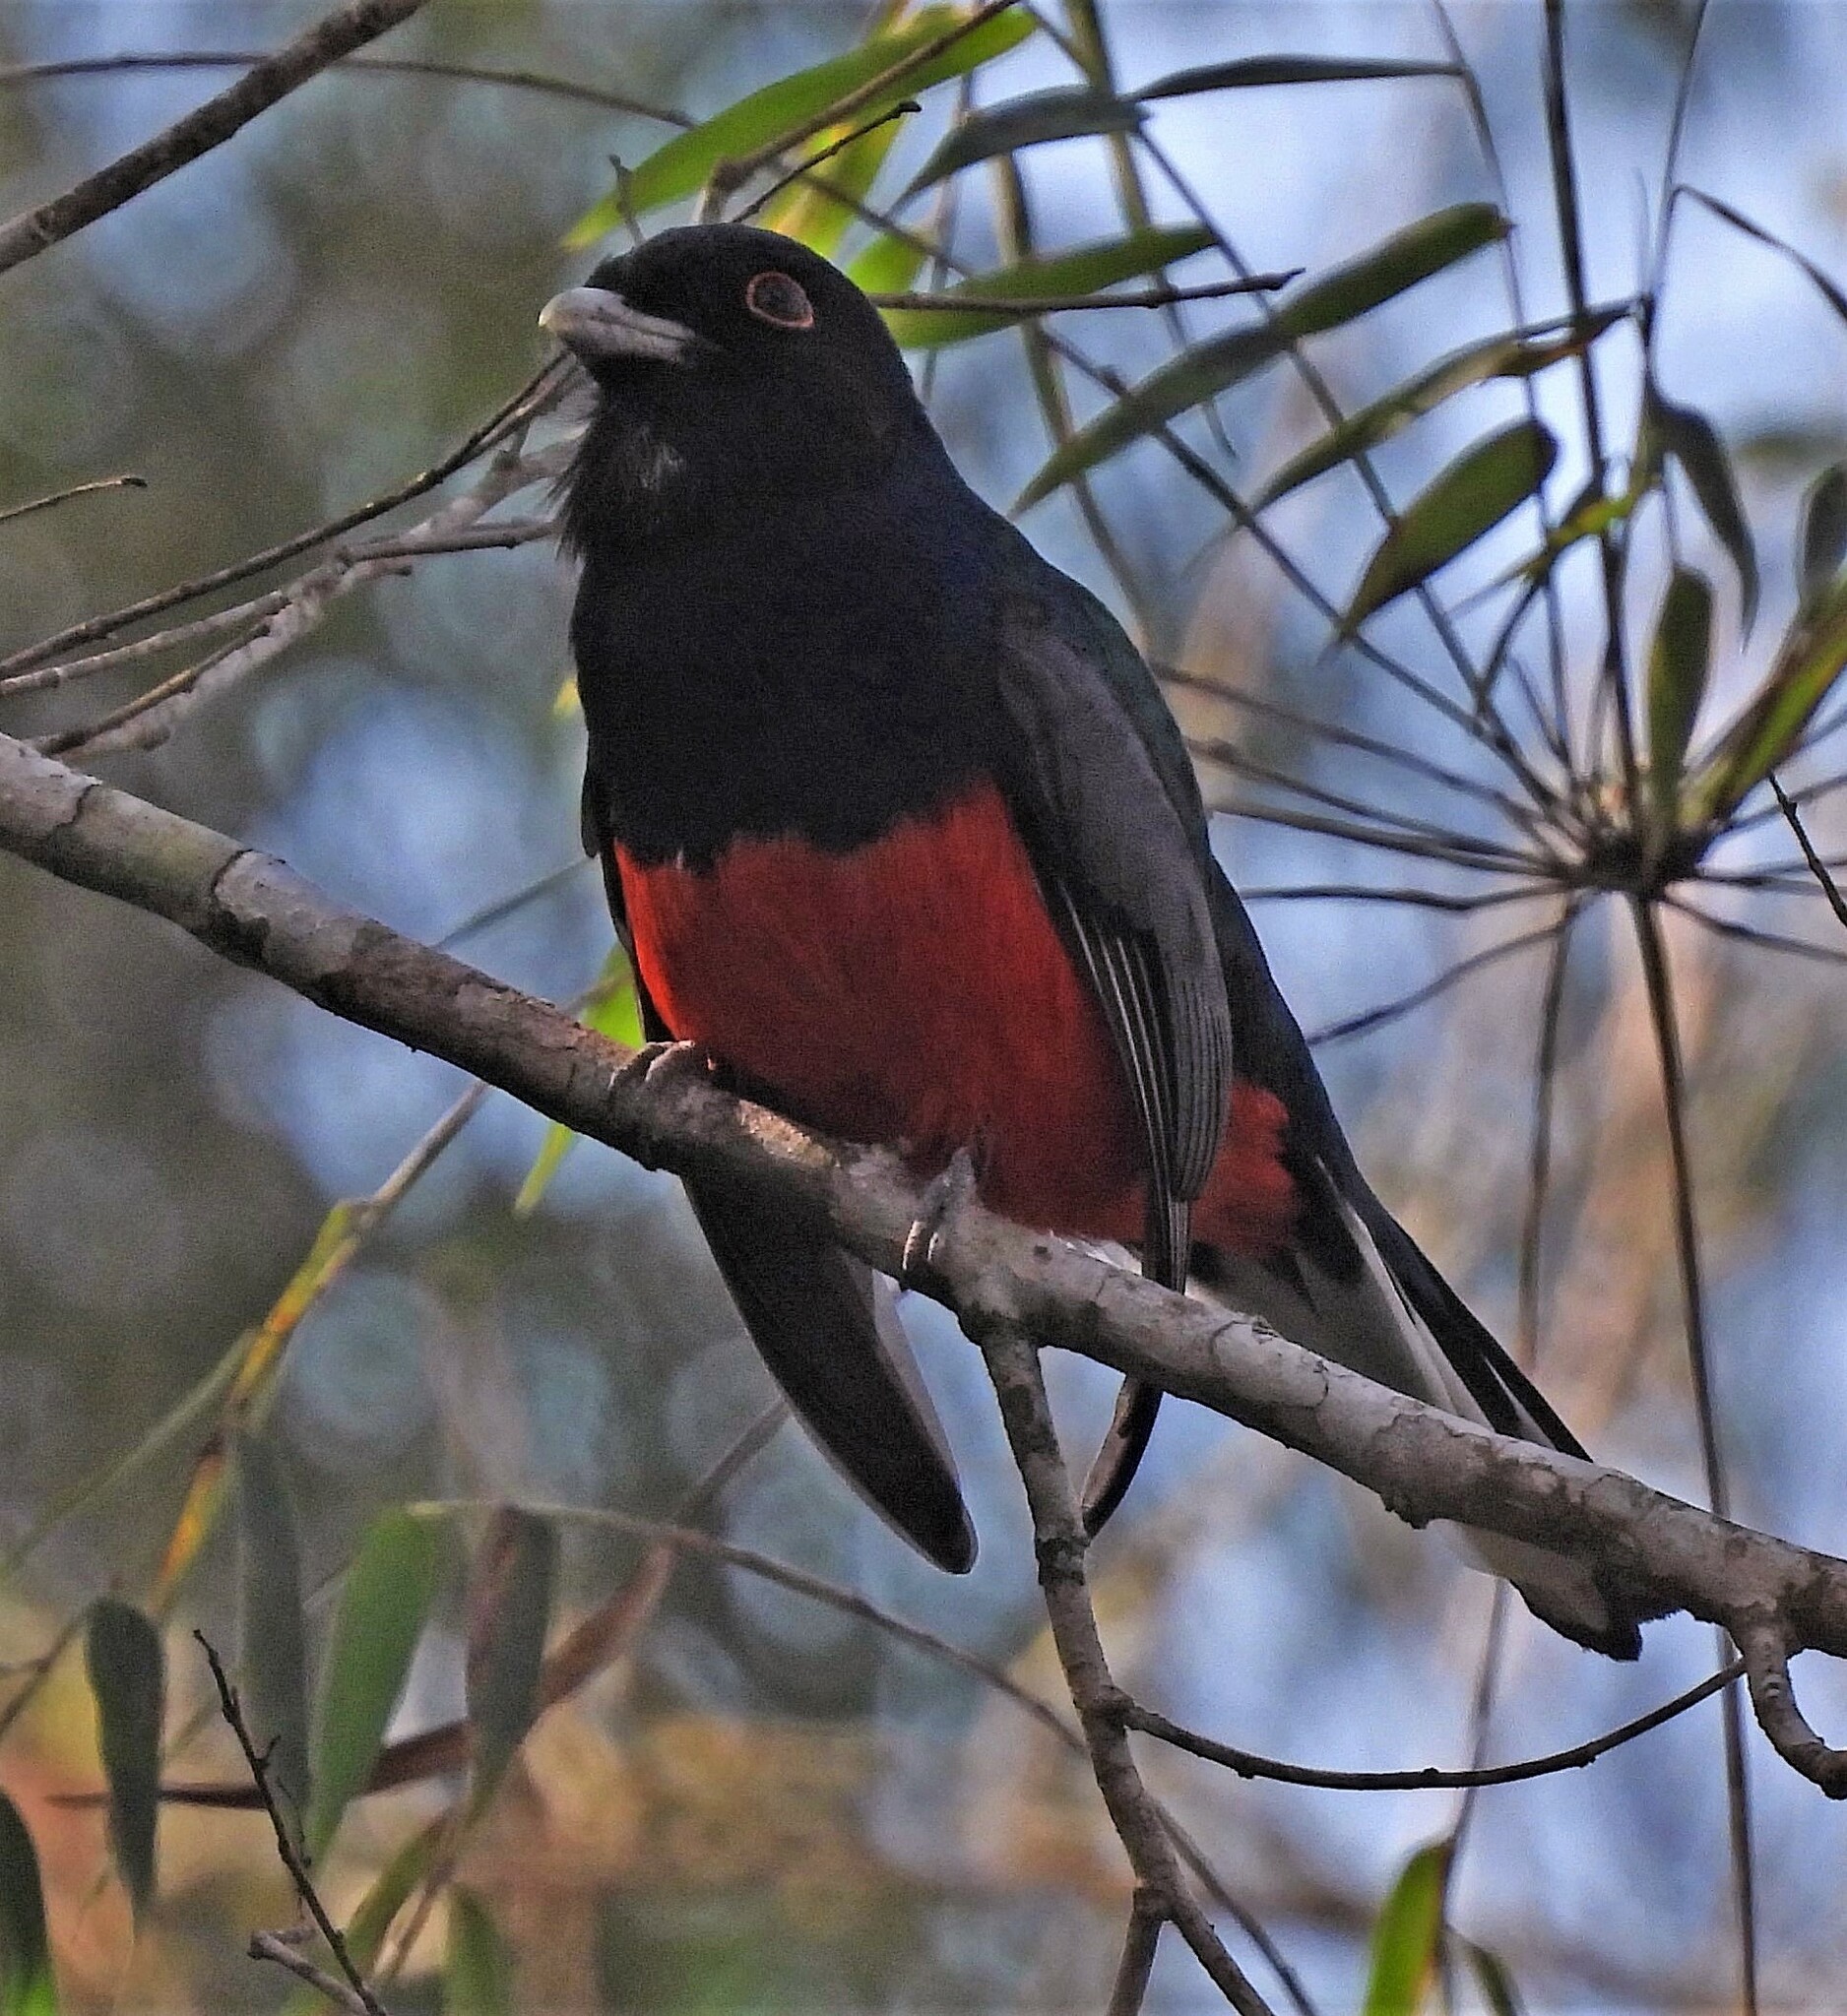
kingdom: Animalia
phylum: Chordata
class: Aves
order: Trogoniformes
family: Trogonidae
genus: Trogon
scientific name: Trogon surrucura
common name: Surucua trogon
